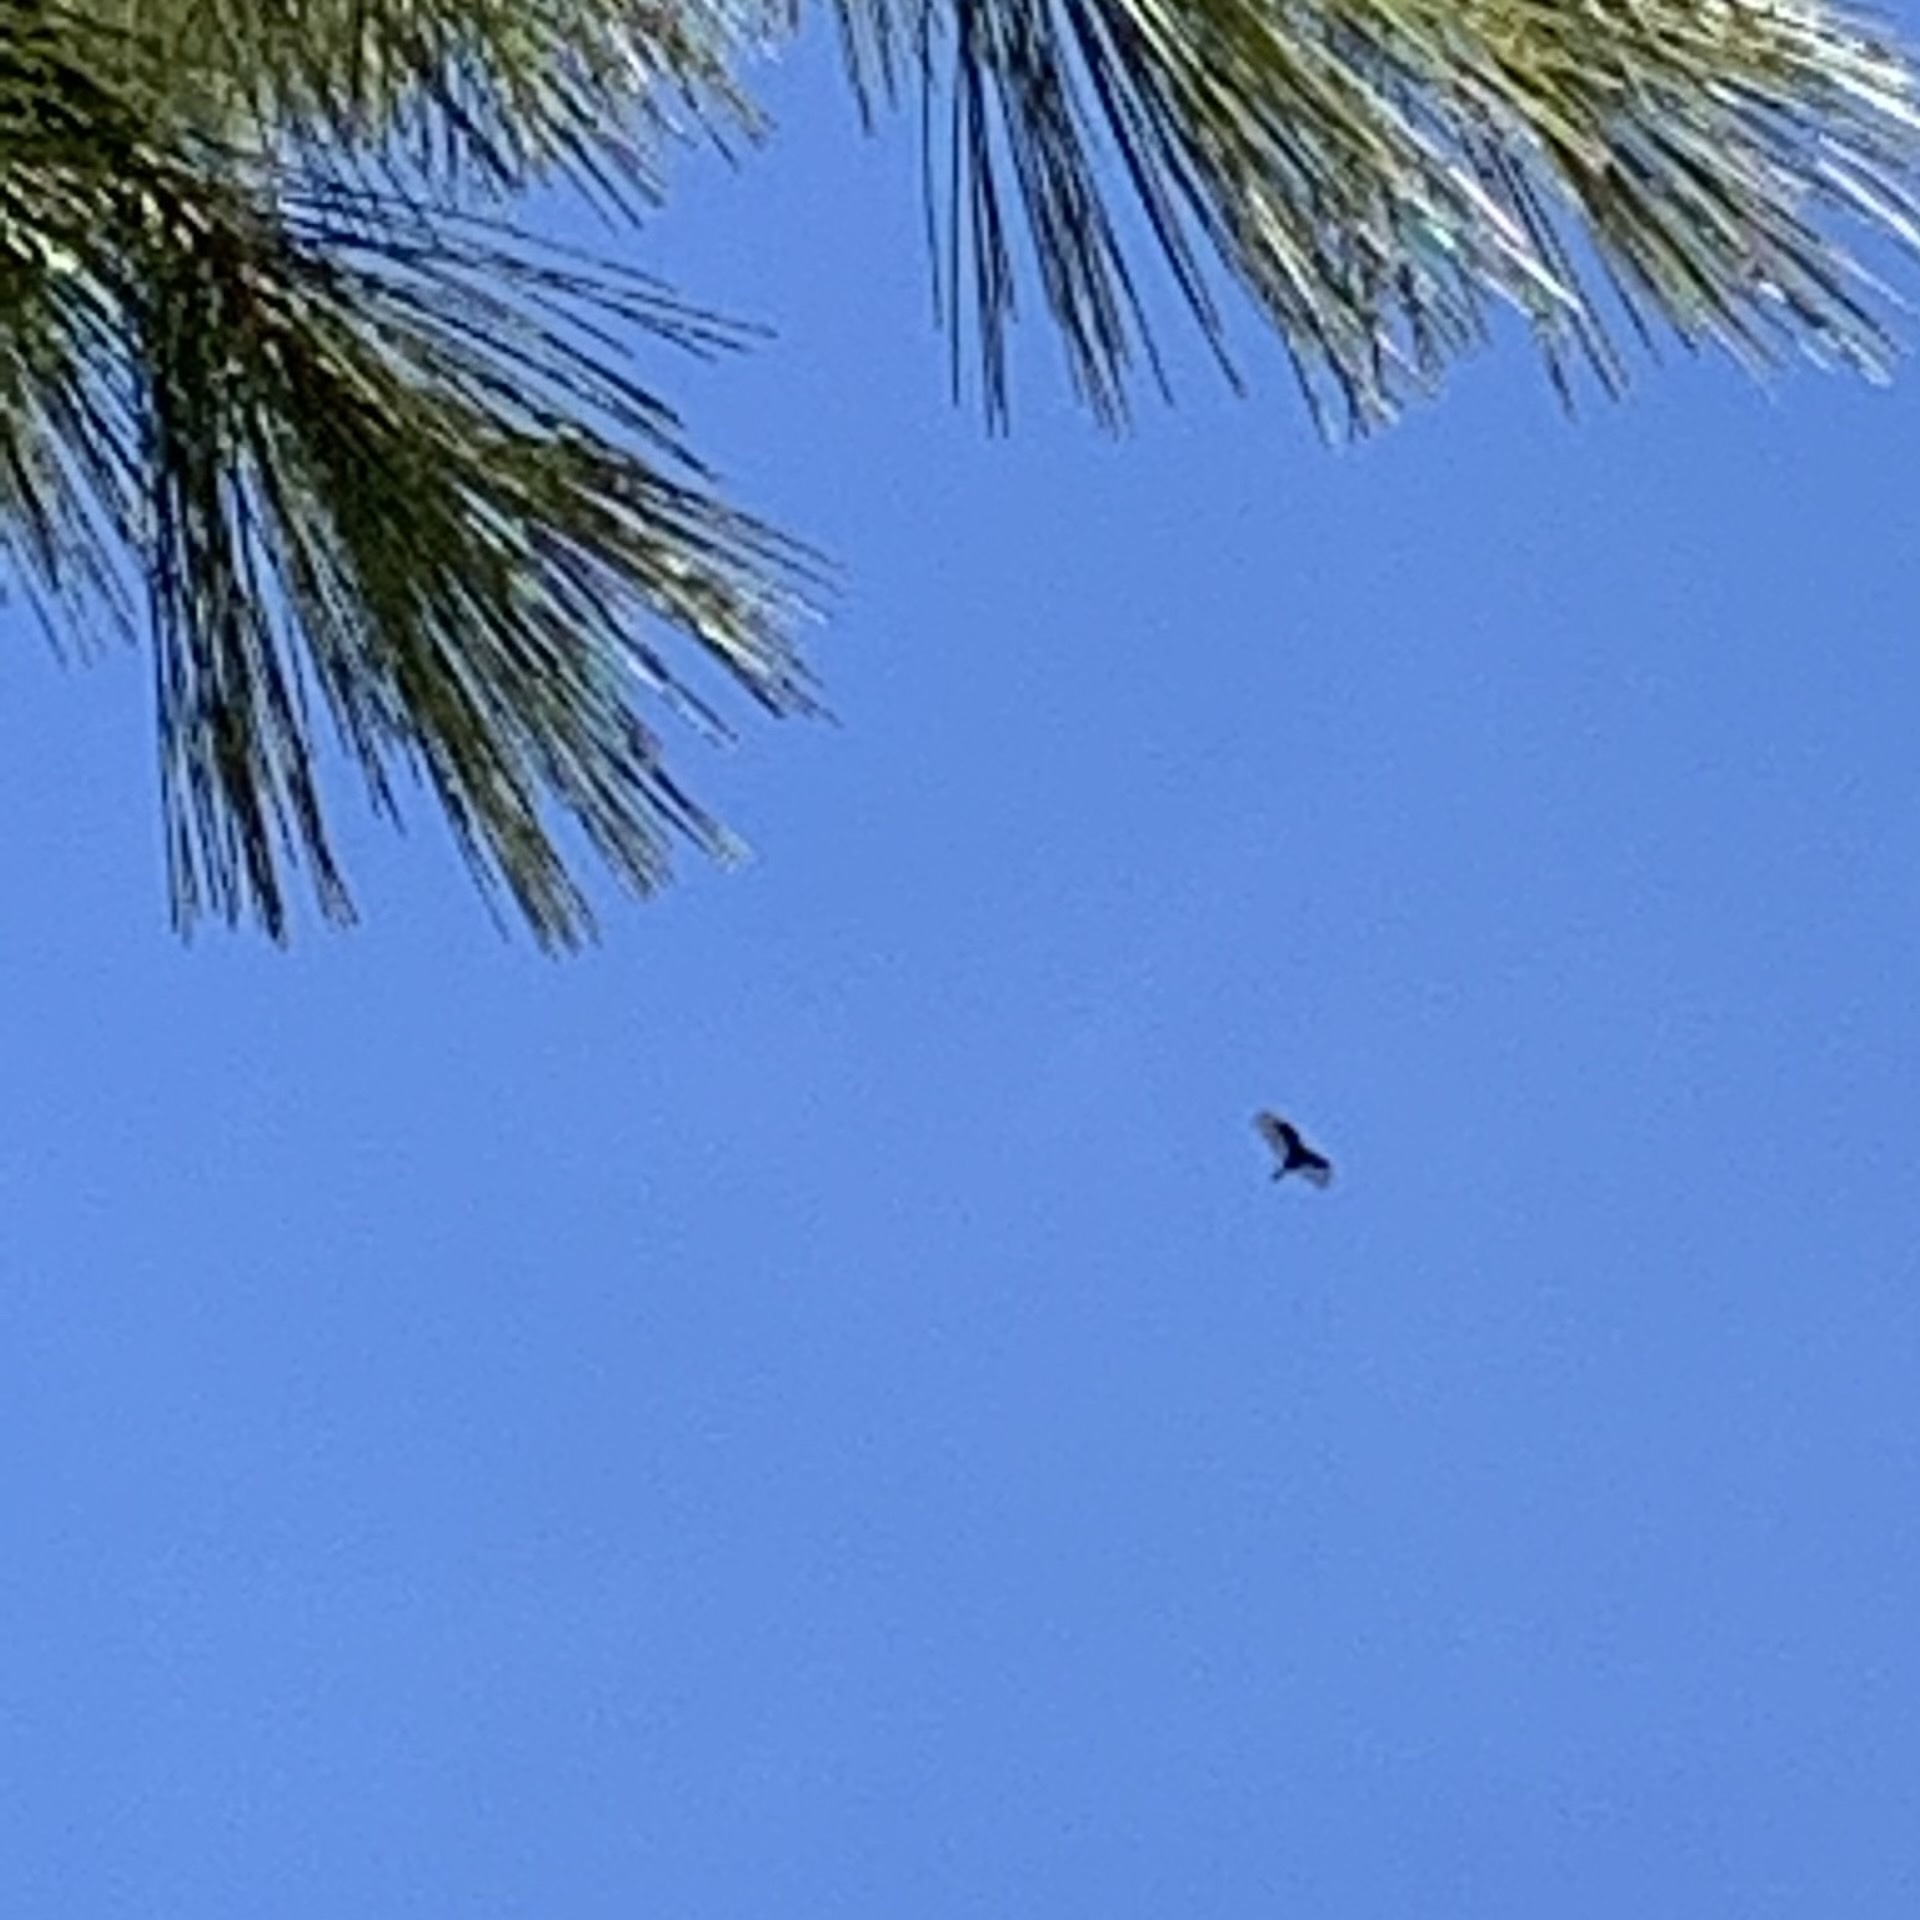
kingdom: Animalia
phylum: Chordata
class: Aves
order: Accipitriformes
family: Cathartidae
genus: Cathartes
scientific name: Cathartes aura
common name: Turkey vulture
